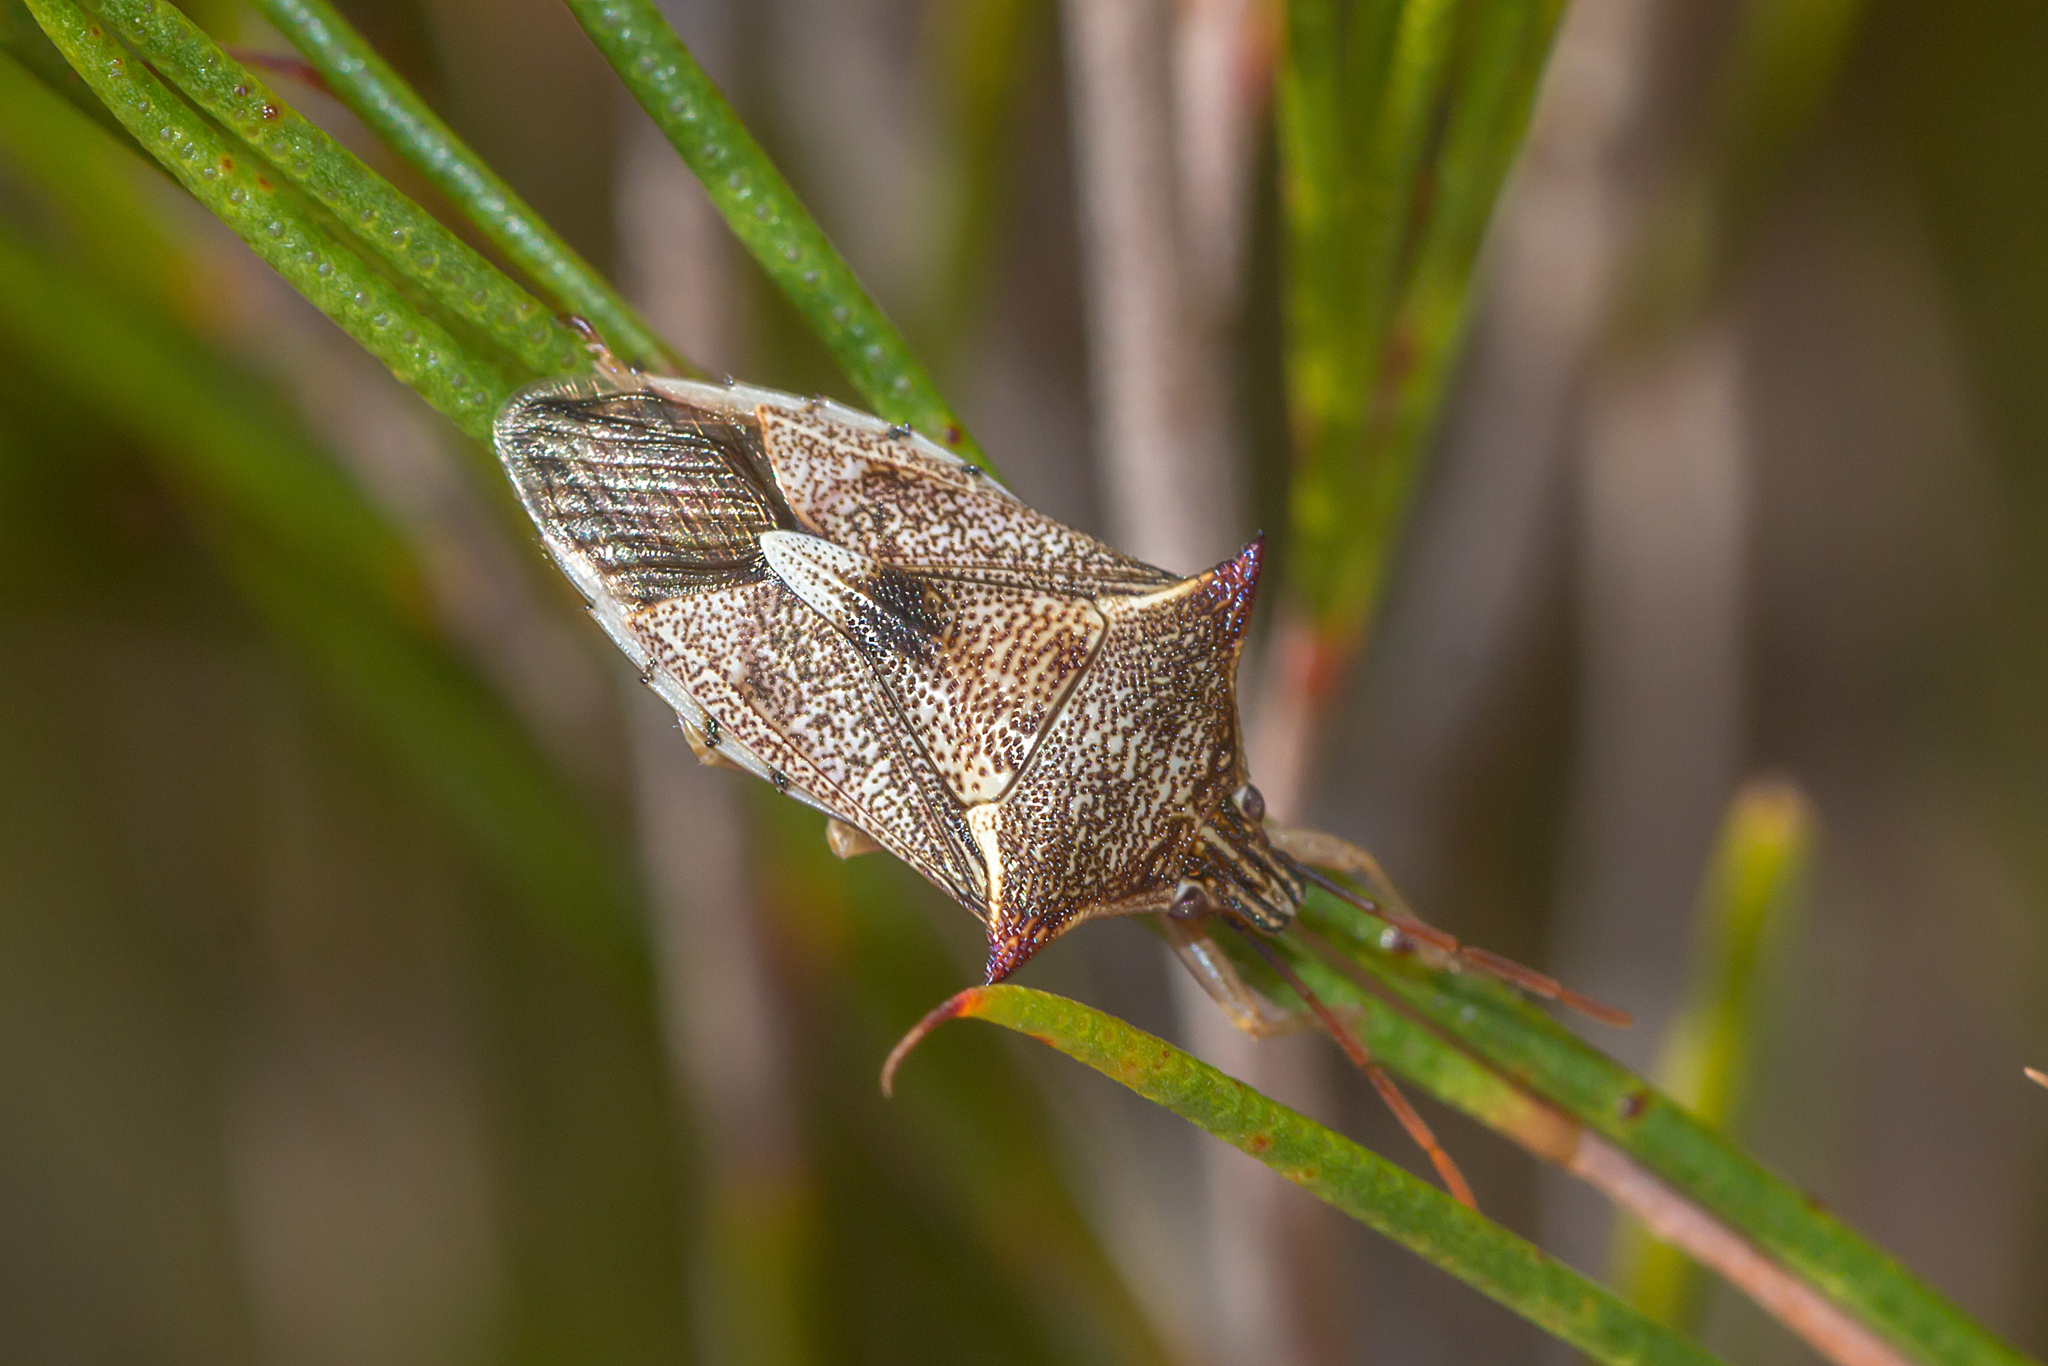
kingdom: Animalia
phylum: Arthropoda
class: Insecta
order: Hemiptera
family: Pentatomidae
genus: Oechalia
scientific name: Oechalia schellenbergii
